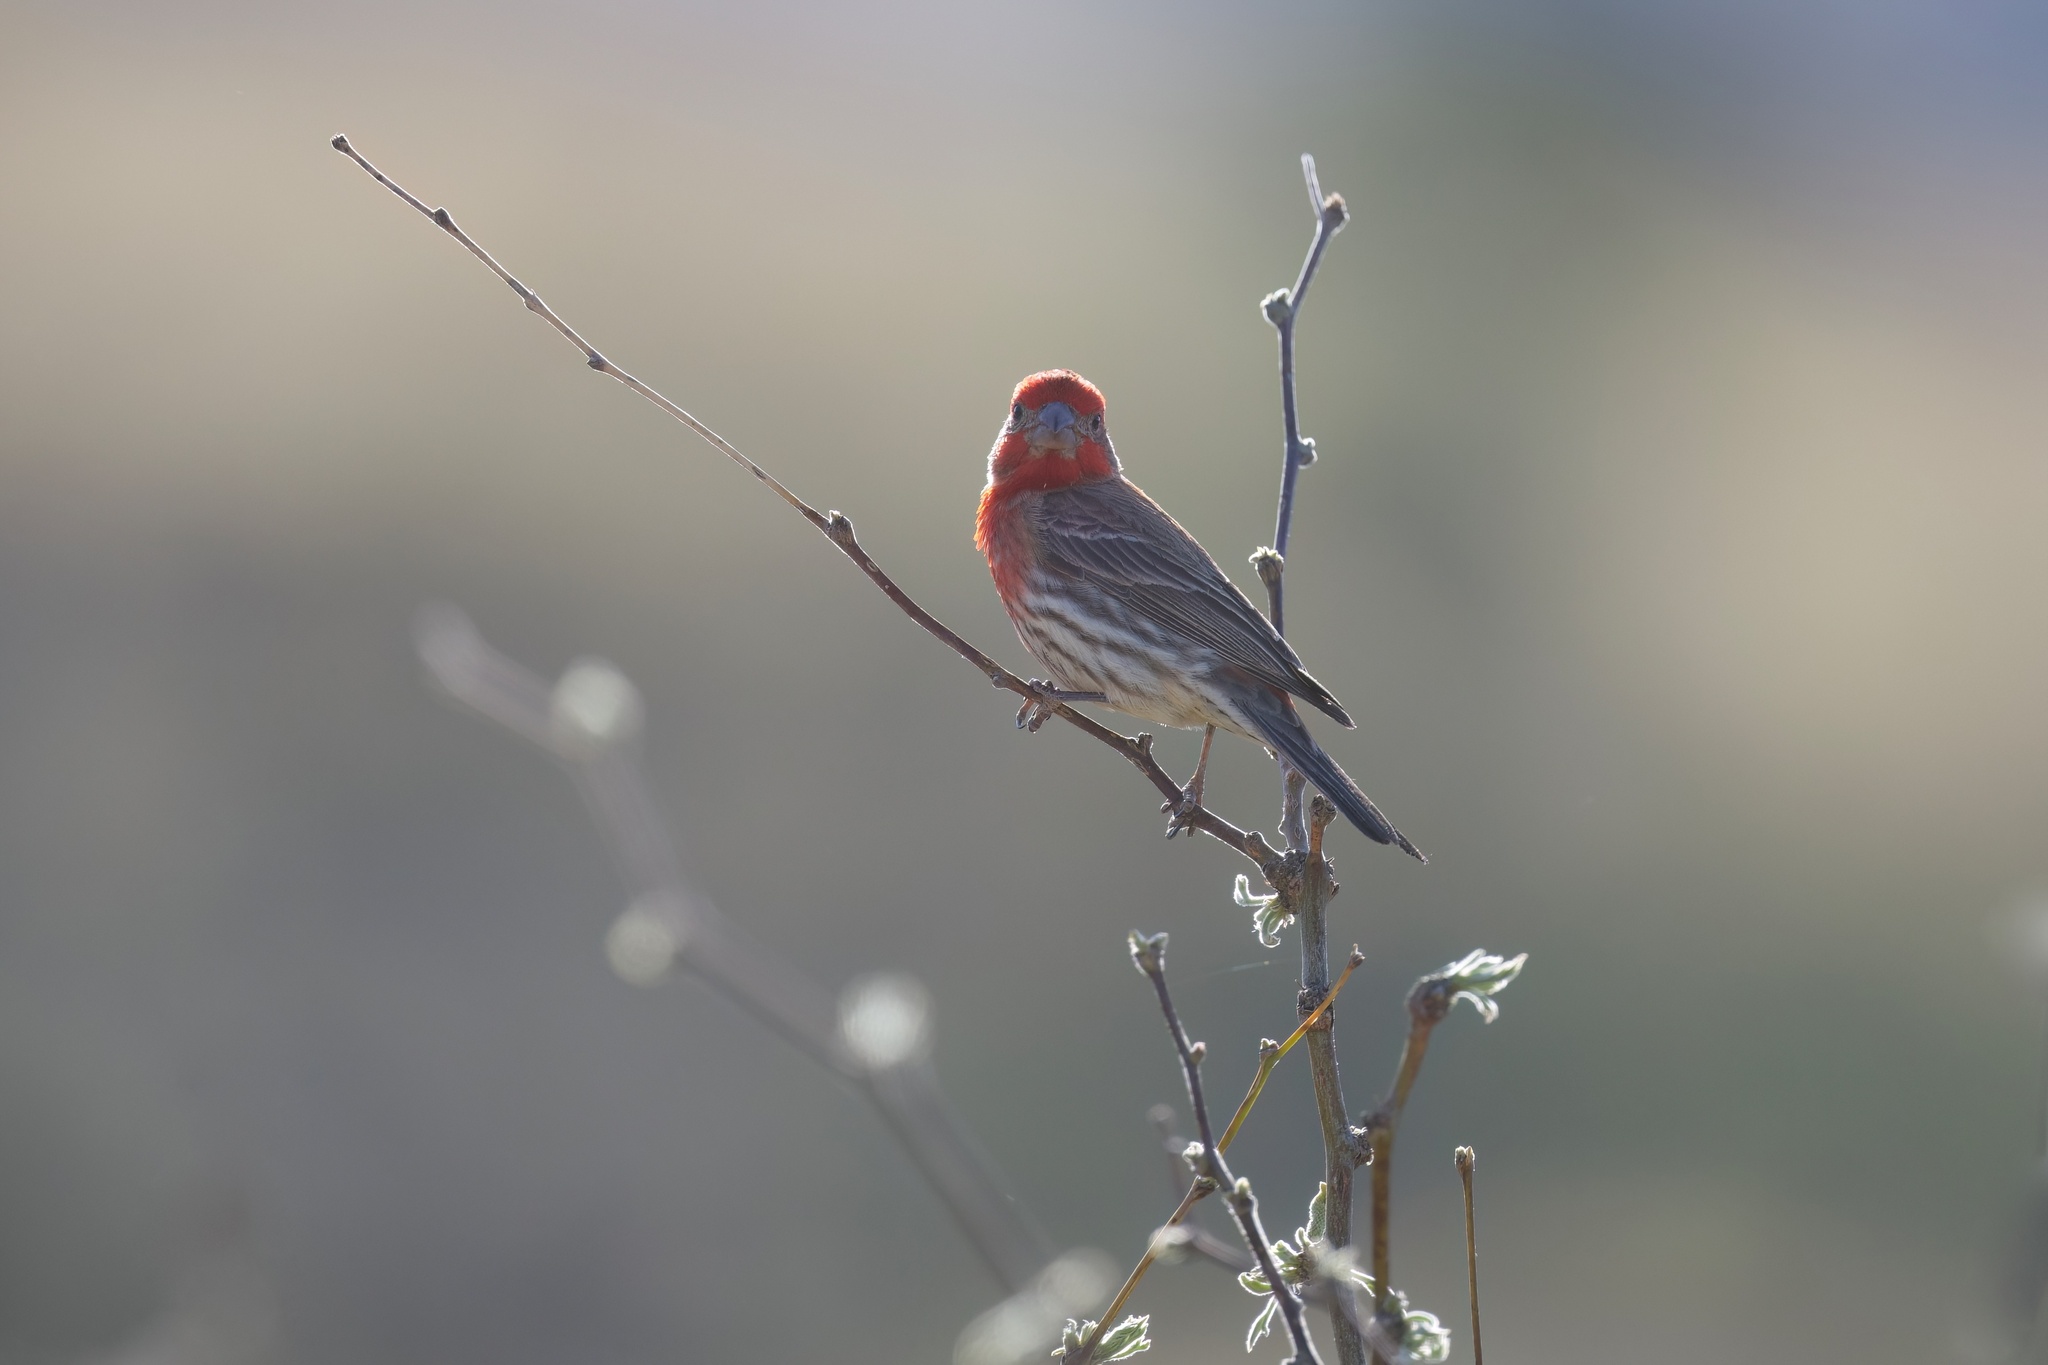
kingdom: Animalia
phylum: Chordata
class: Aves
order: Passeriformes
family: Fringillidae
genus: Haemorhous
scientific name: Haemorhous mexicanus
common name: House finch
